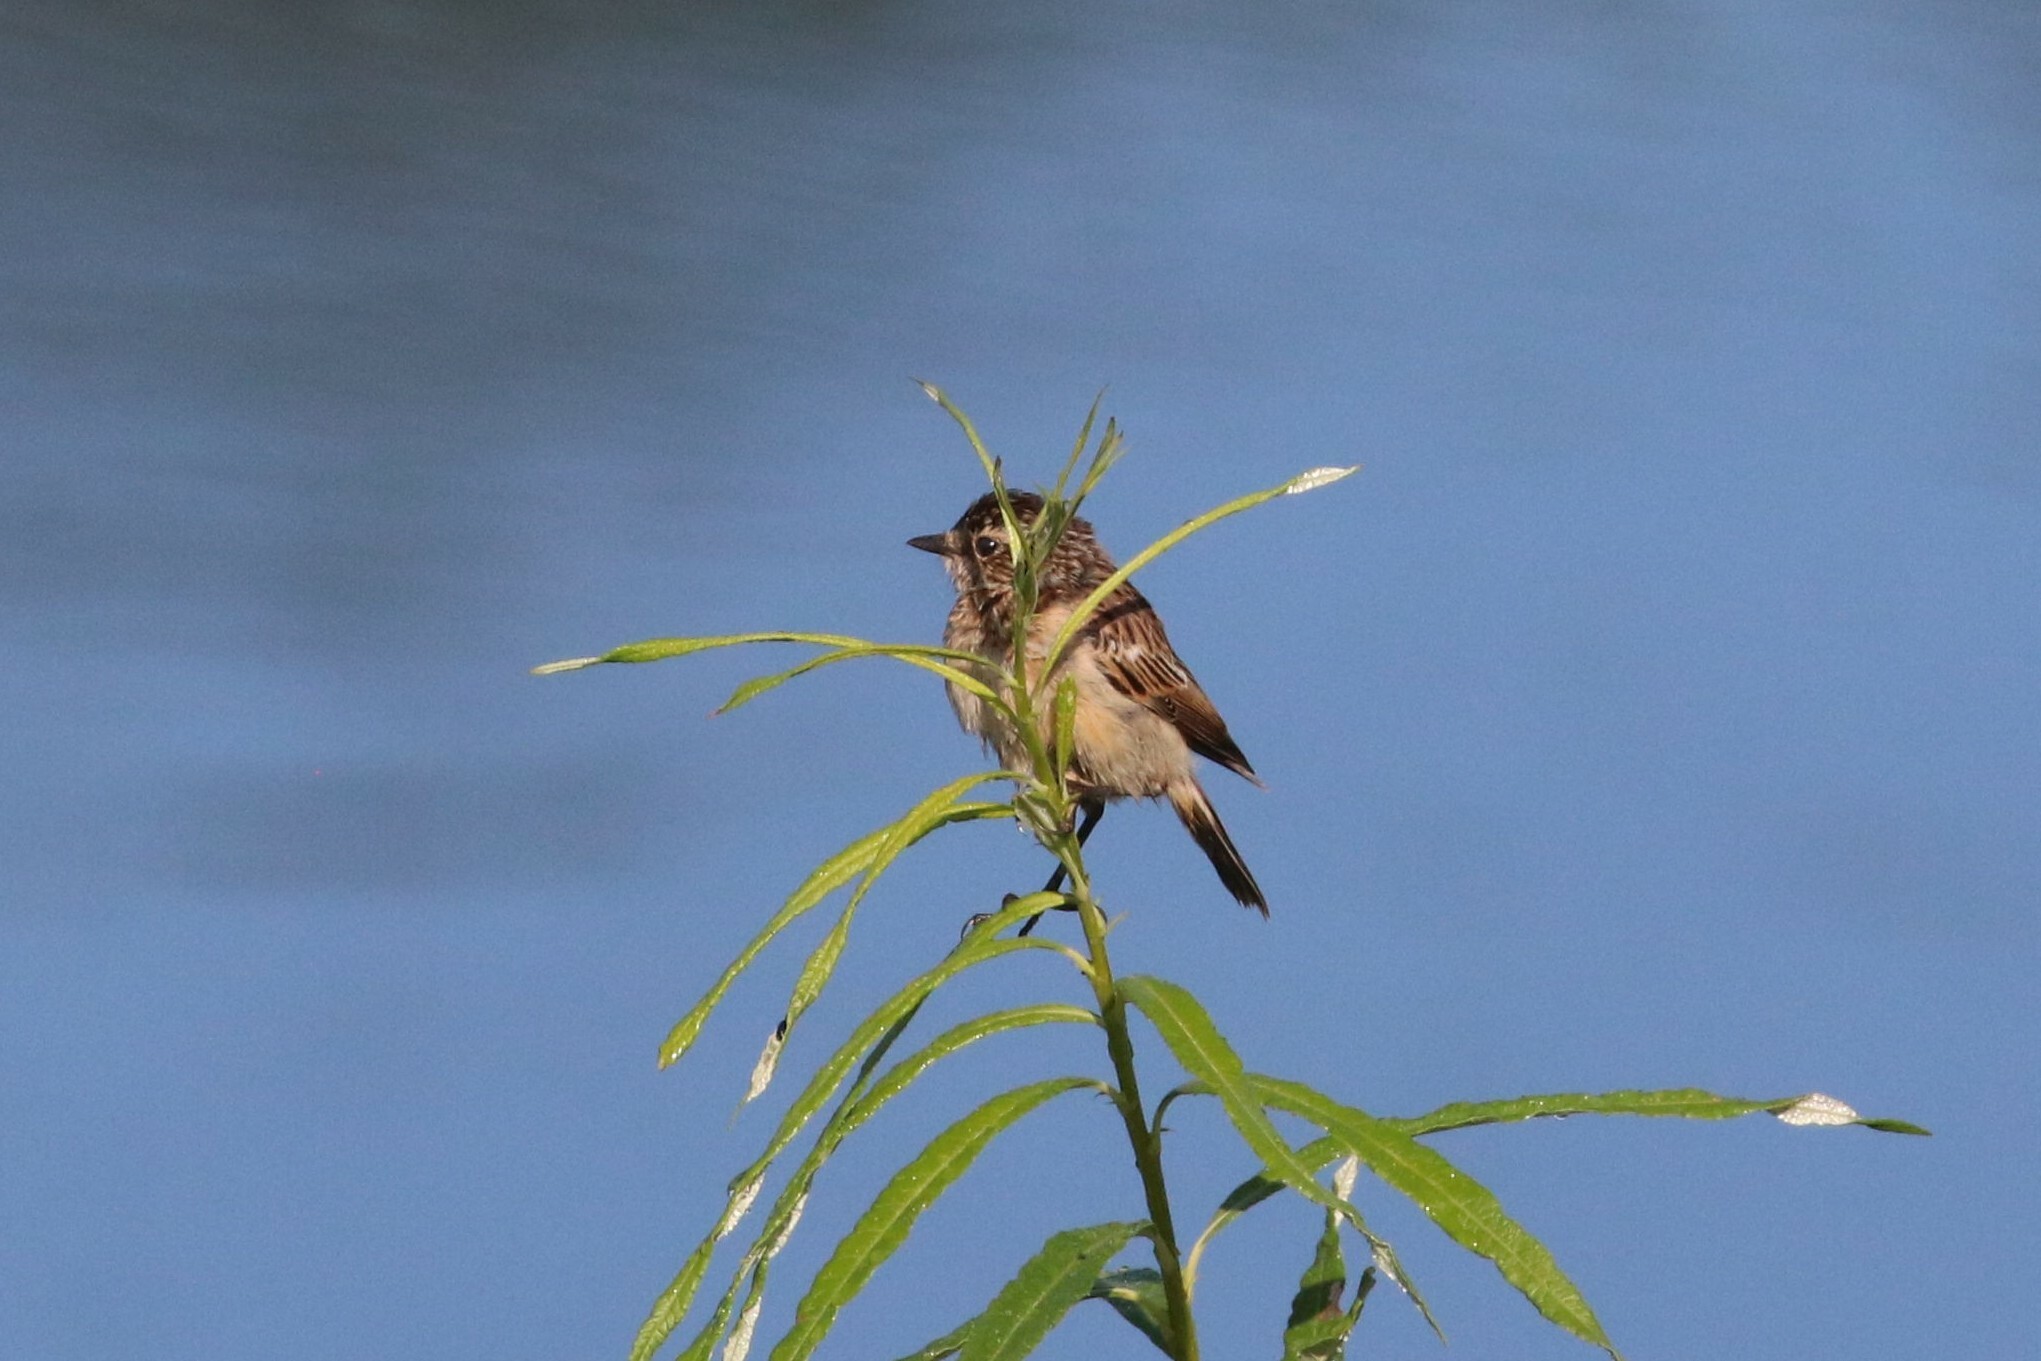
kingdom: Animalia
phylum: Chordata
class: Aves
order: Passeriformes
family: Muscicapidae
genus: Saxicola
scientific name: Saxicola rubetra
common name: Whinchat
